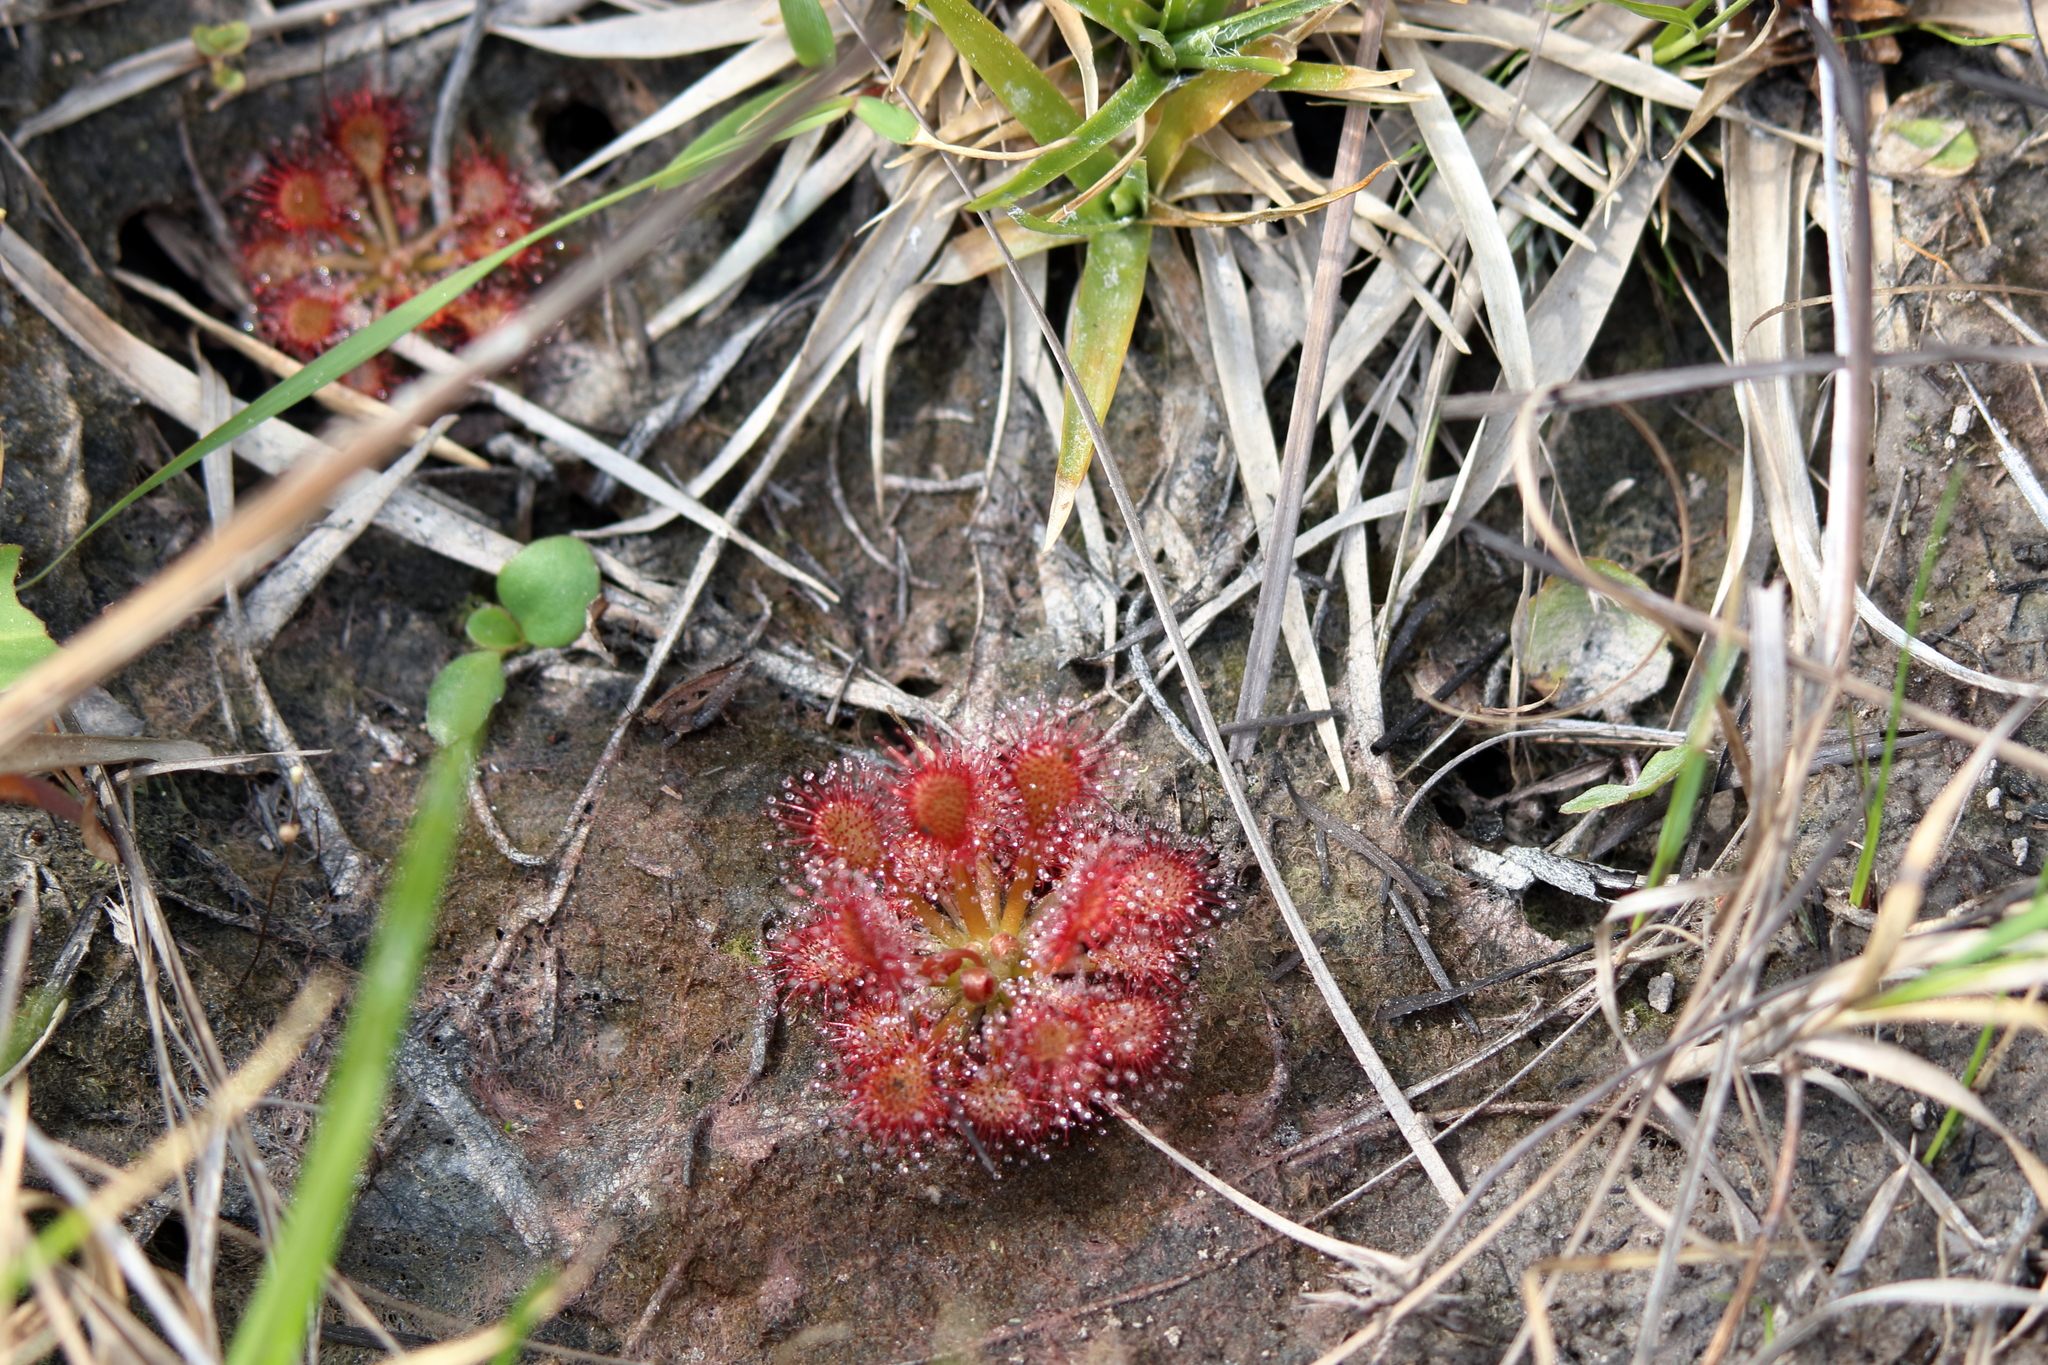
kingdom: Plantae
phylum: Tracheophyta
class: Magnoliopsida
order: Caryophyllales
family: Droseraceae
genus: Drosera
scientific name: Drosera capillaris
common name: Pink sundew
